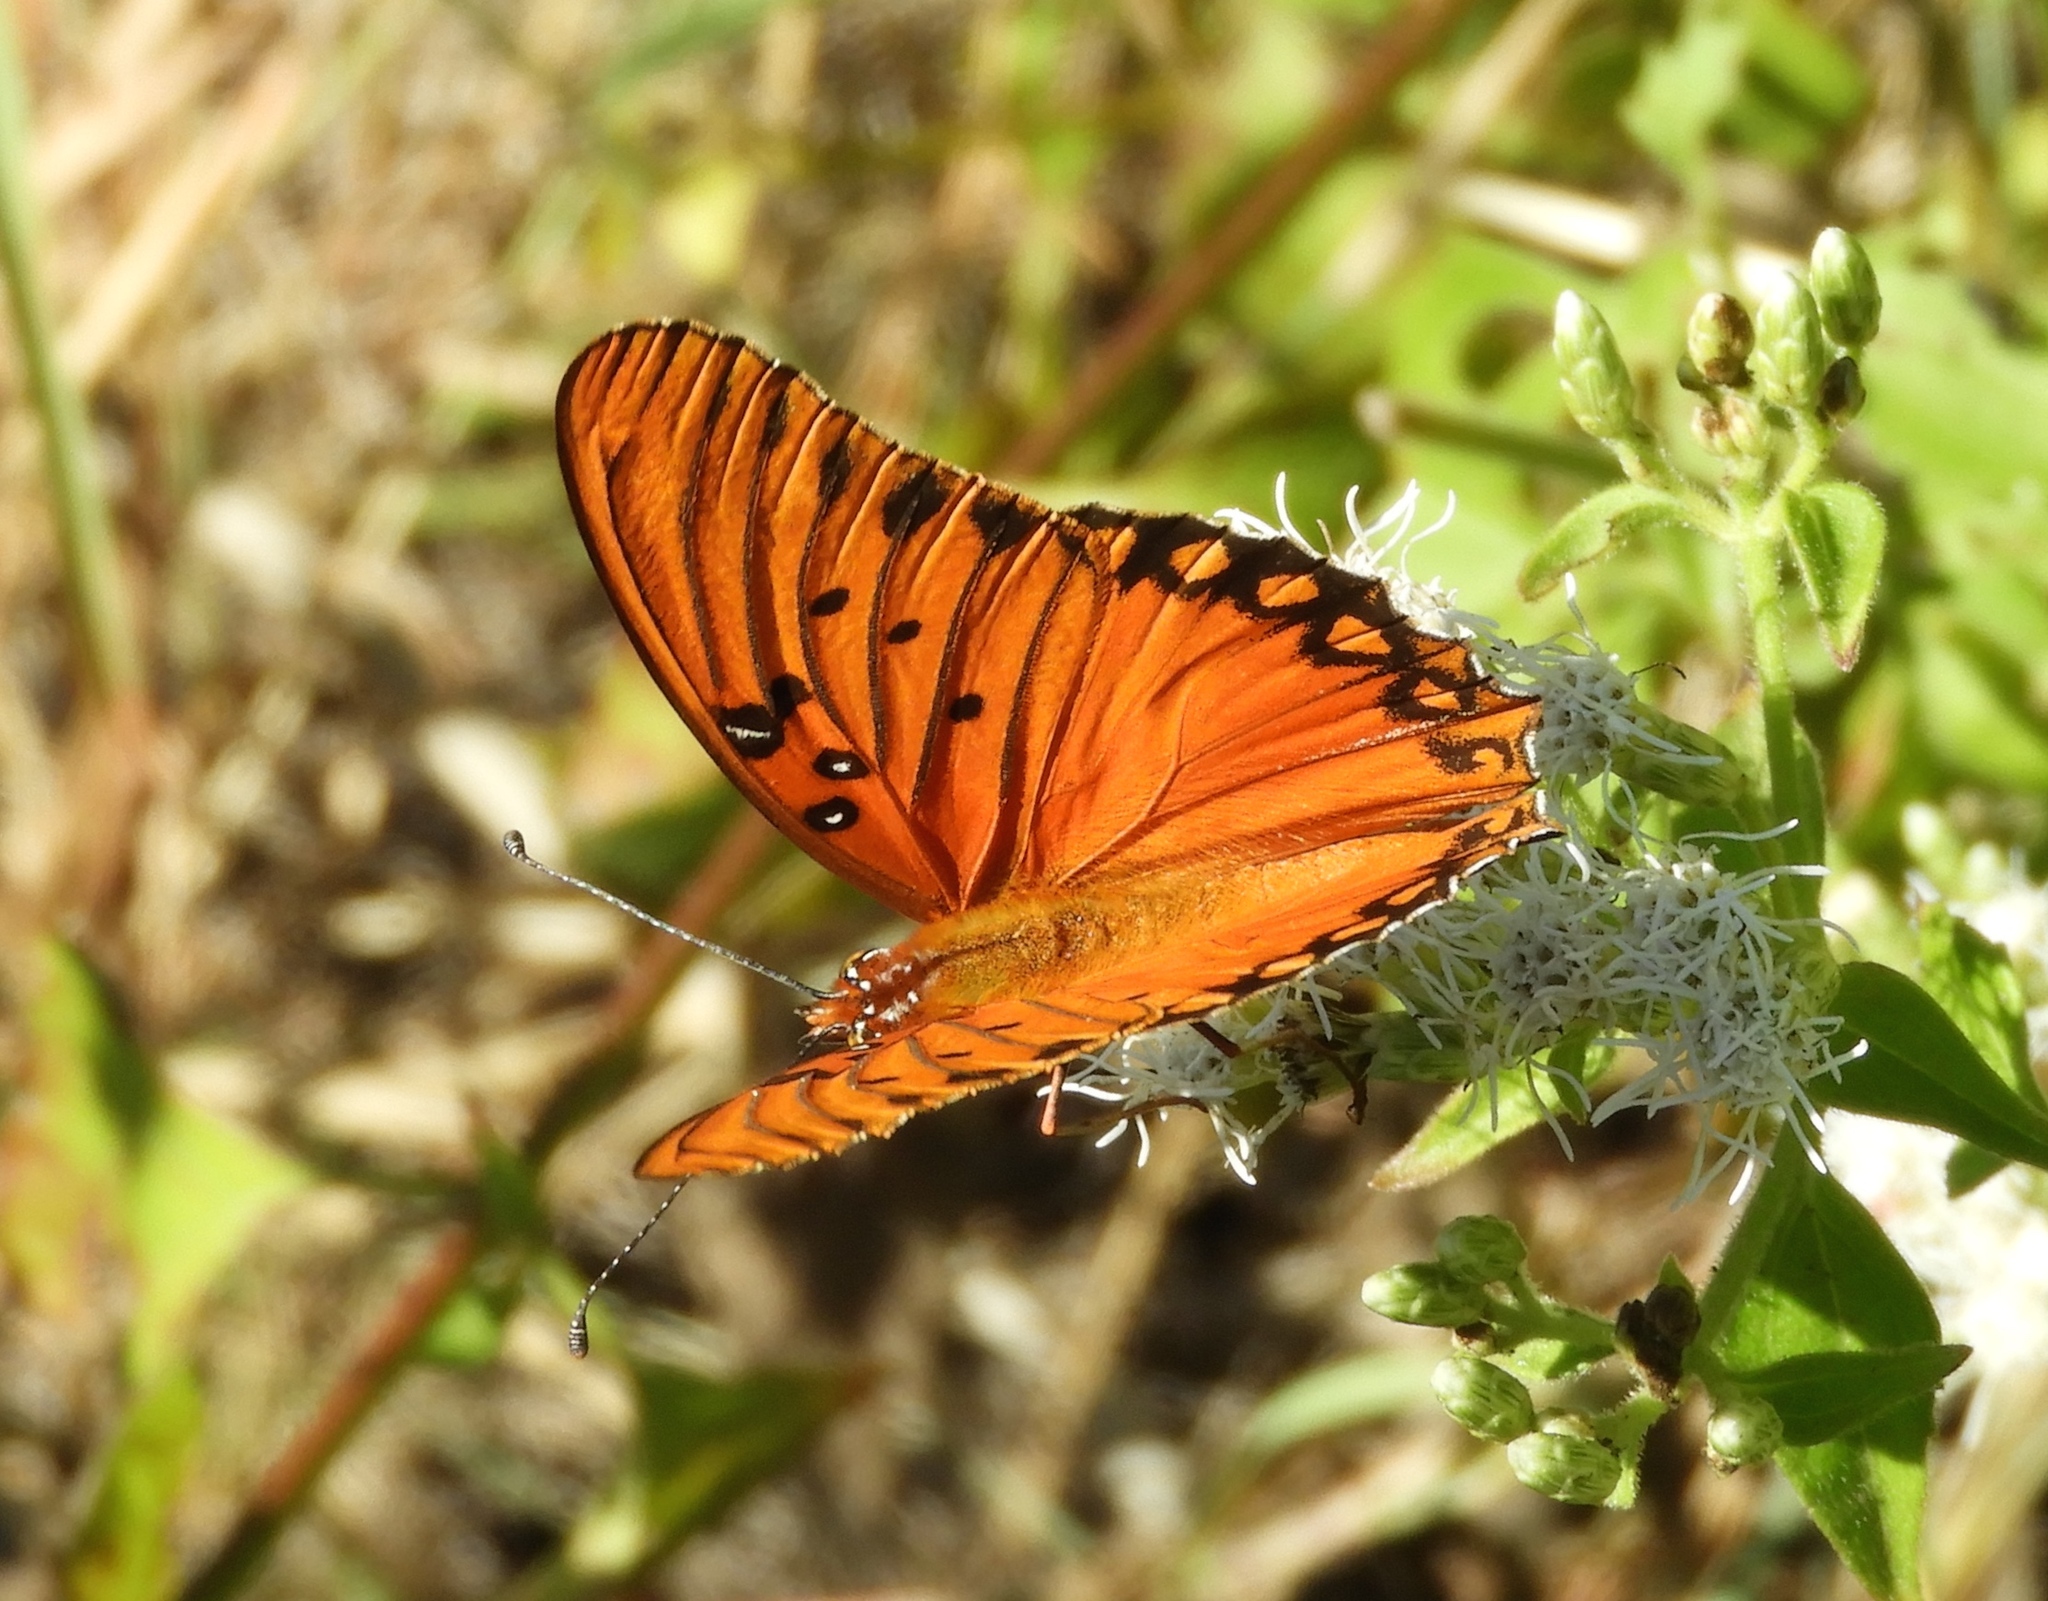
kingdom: Animalia
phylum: Arthropoda
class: Insecta
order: Lepidoptera
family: Nymphalidae
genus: Dione
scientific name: Dione vanillae
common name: Gulf fritillary
